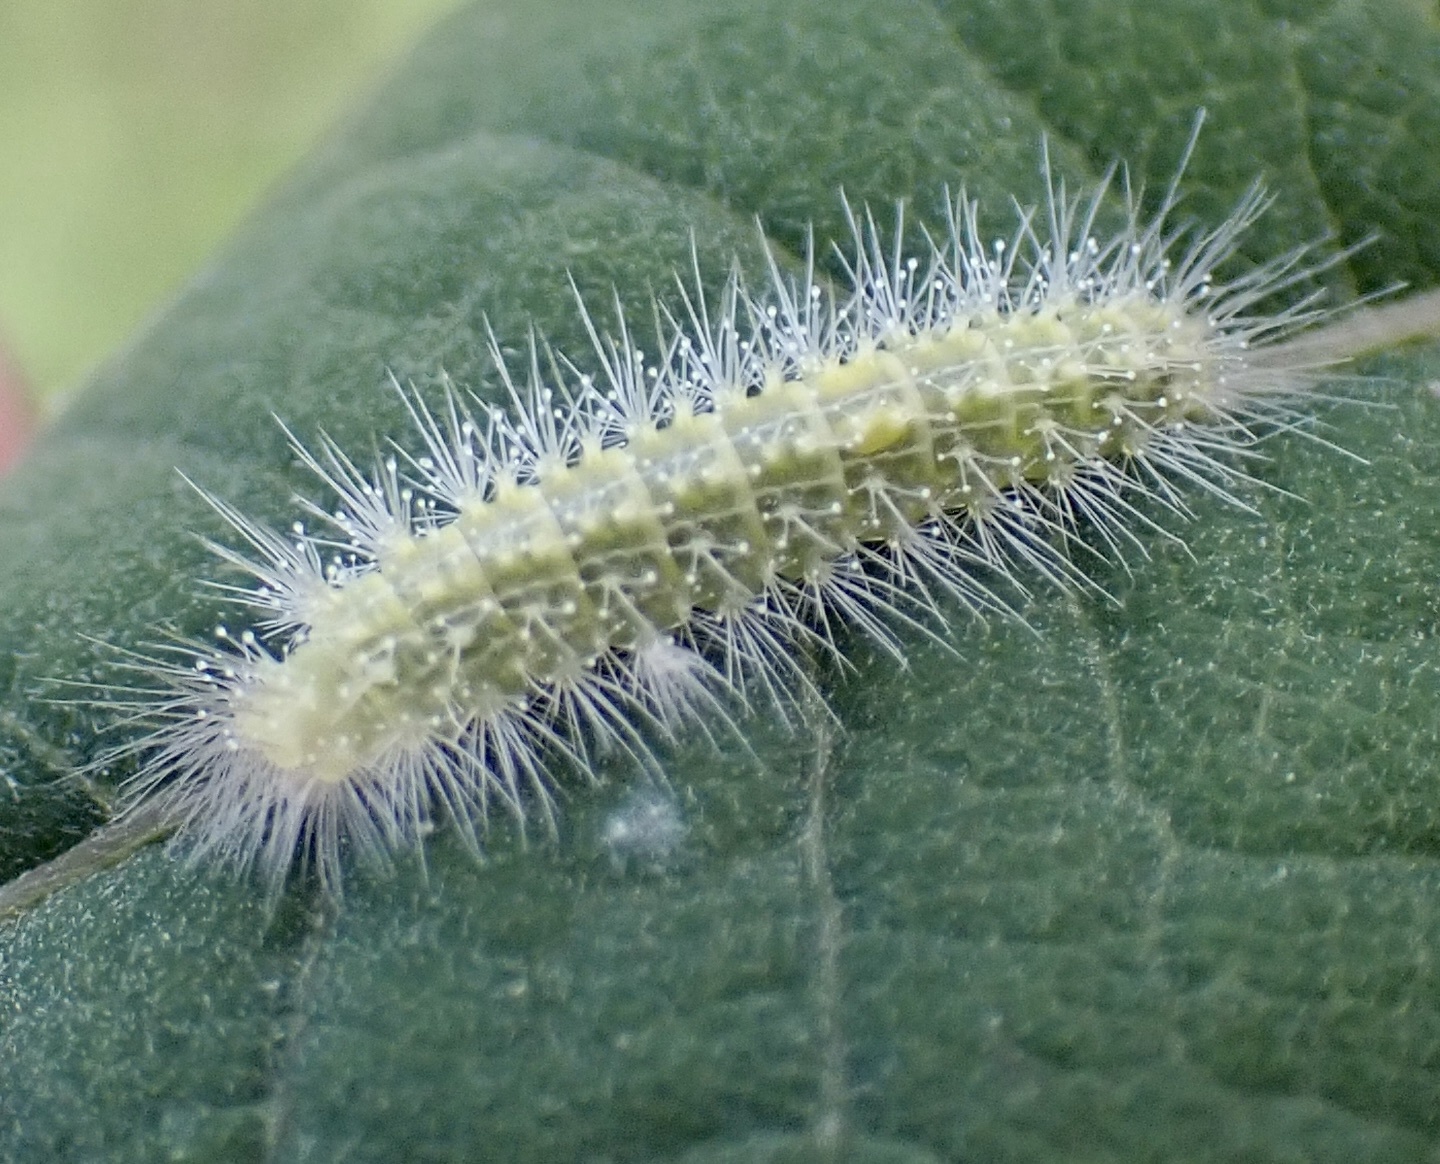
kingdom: Animalia
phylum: Arthropoda
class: Insecta
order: Lepidoptera
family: Pterophoridae
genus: Hellinsia
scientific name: Hellinsia paleaceus
